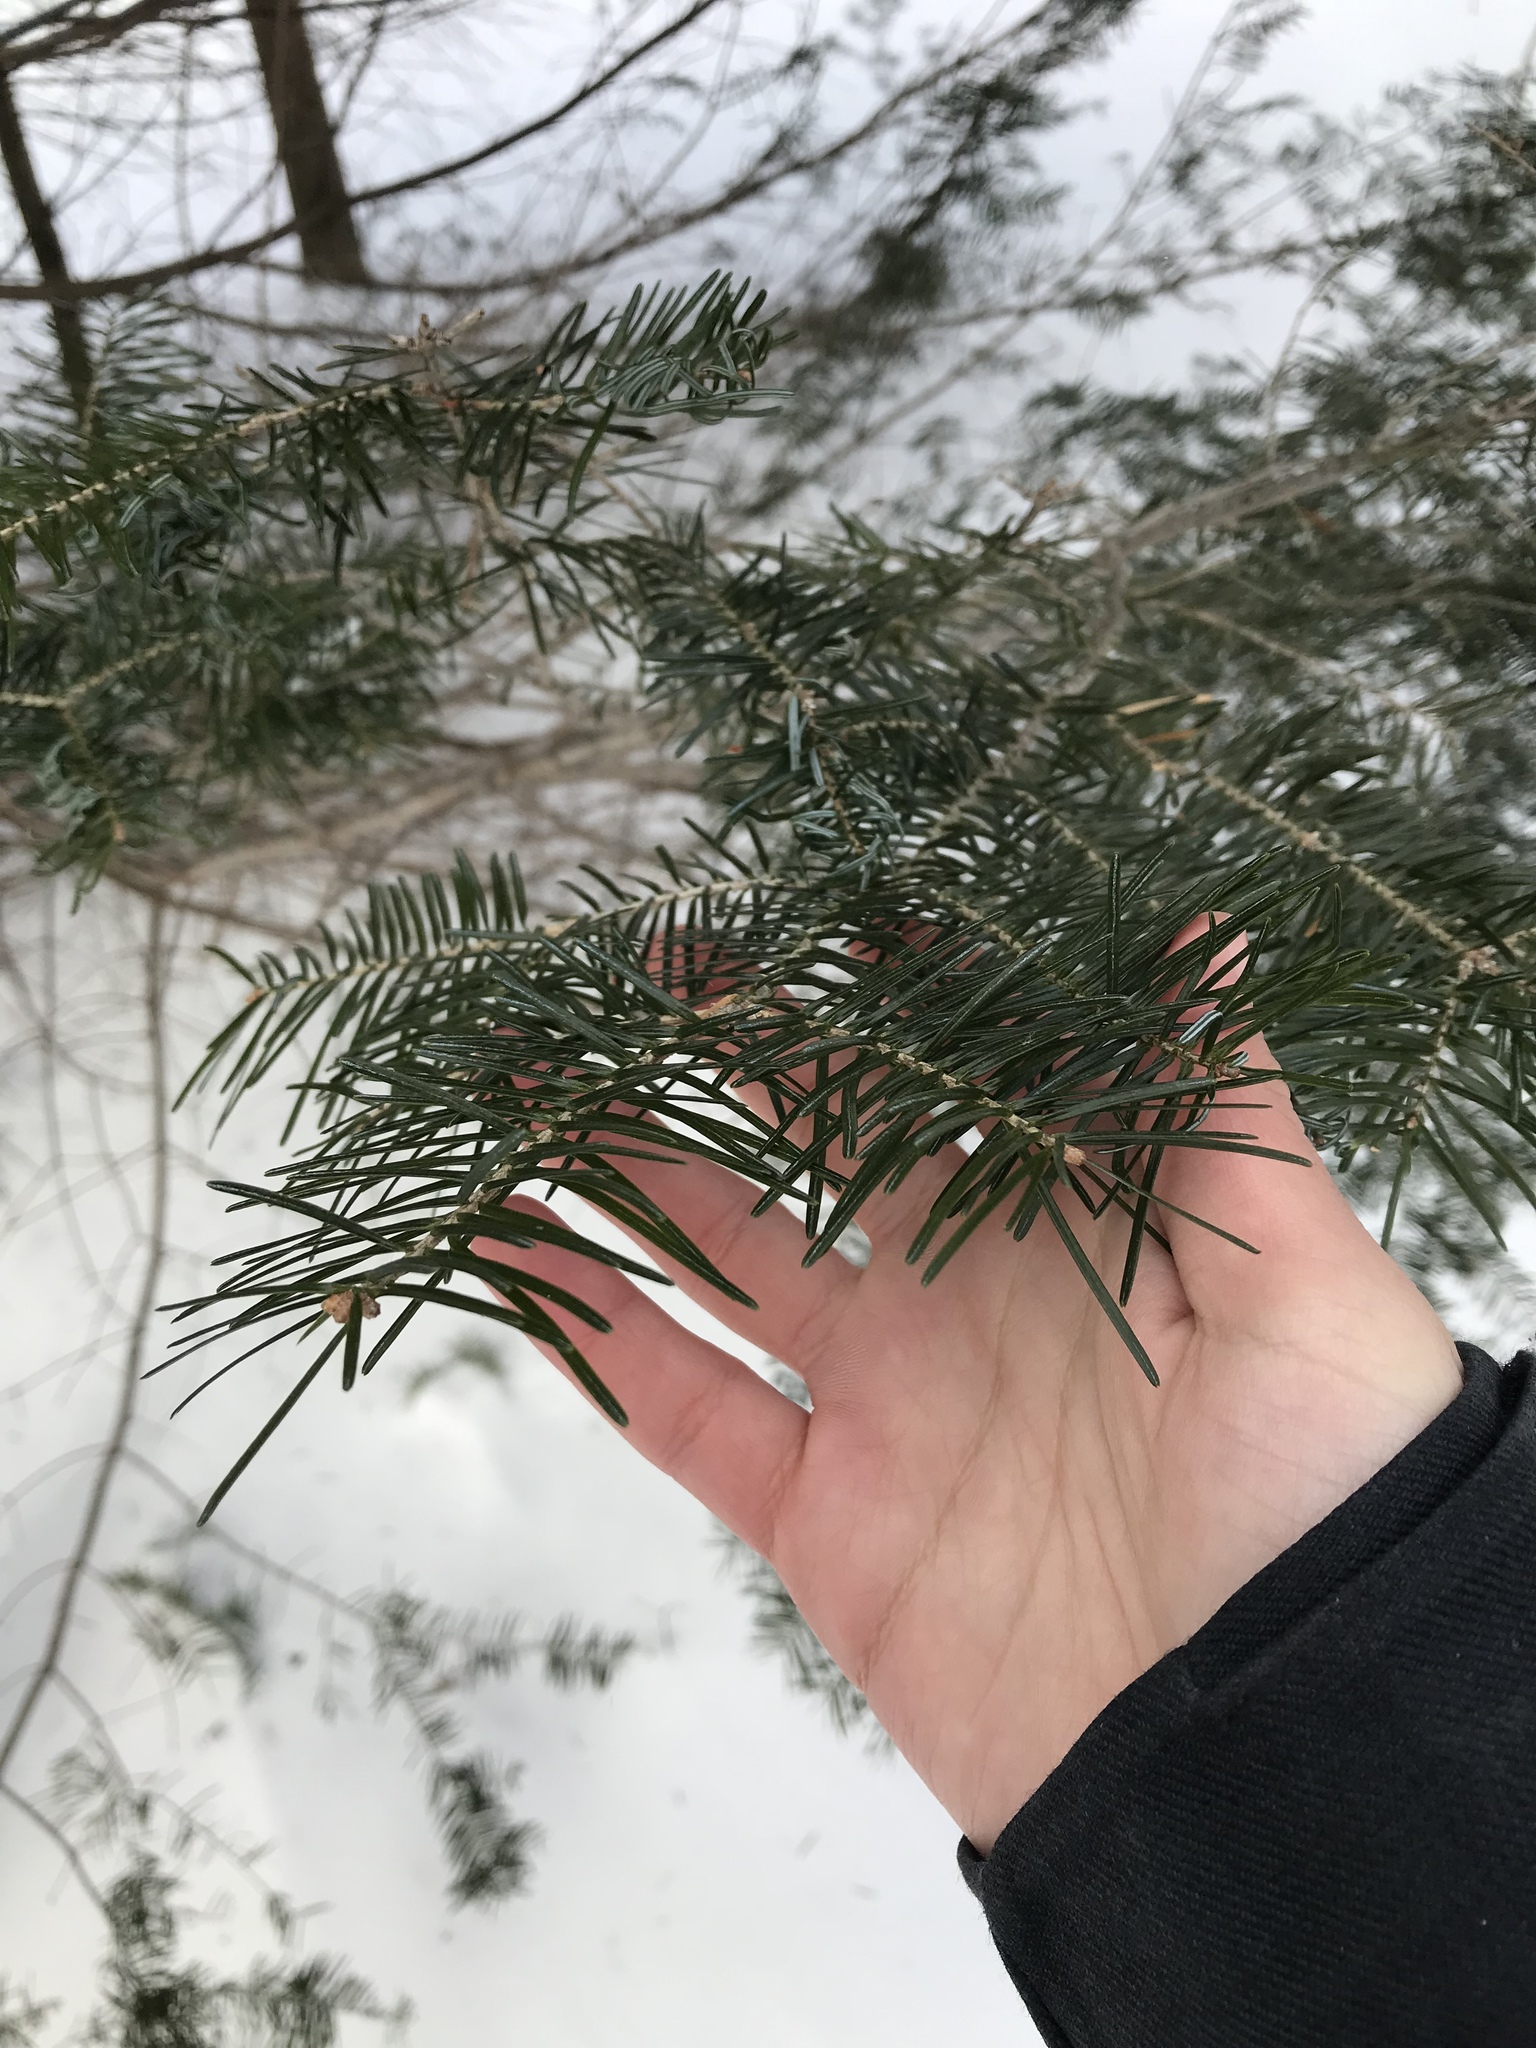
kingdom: Plantae
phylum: Tracheophyta
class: Pinopsida
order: Pinales
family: Pinaceae
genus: Abies
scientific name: Abies balsamea
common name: Balsam fir
